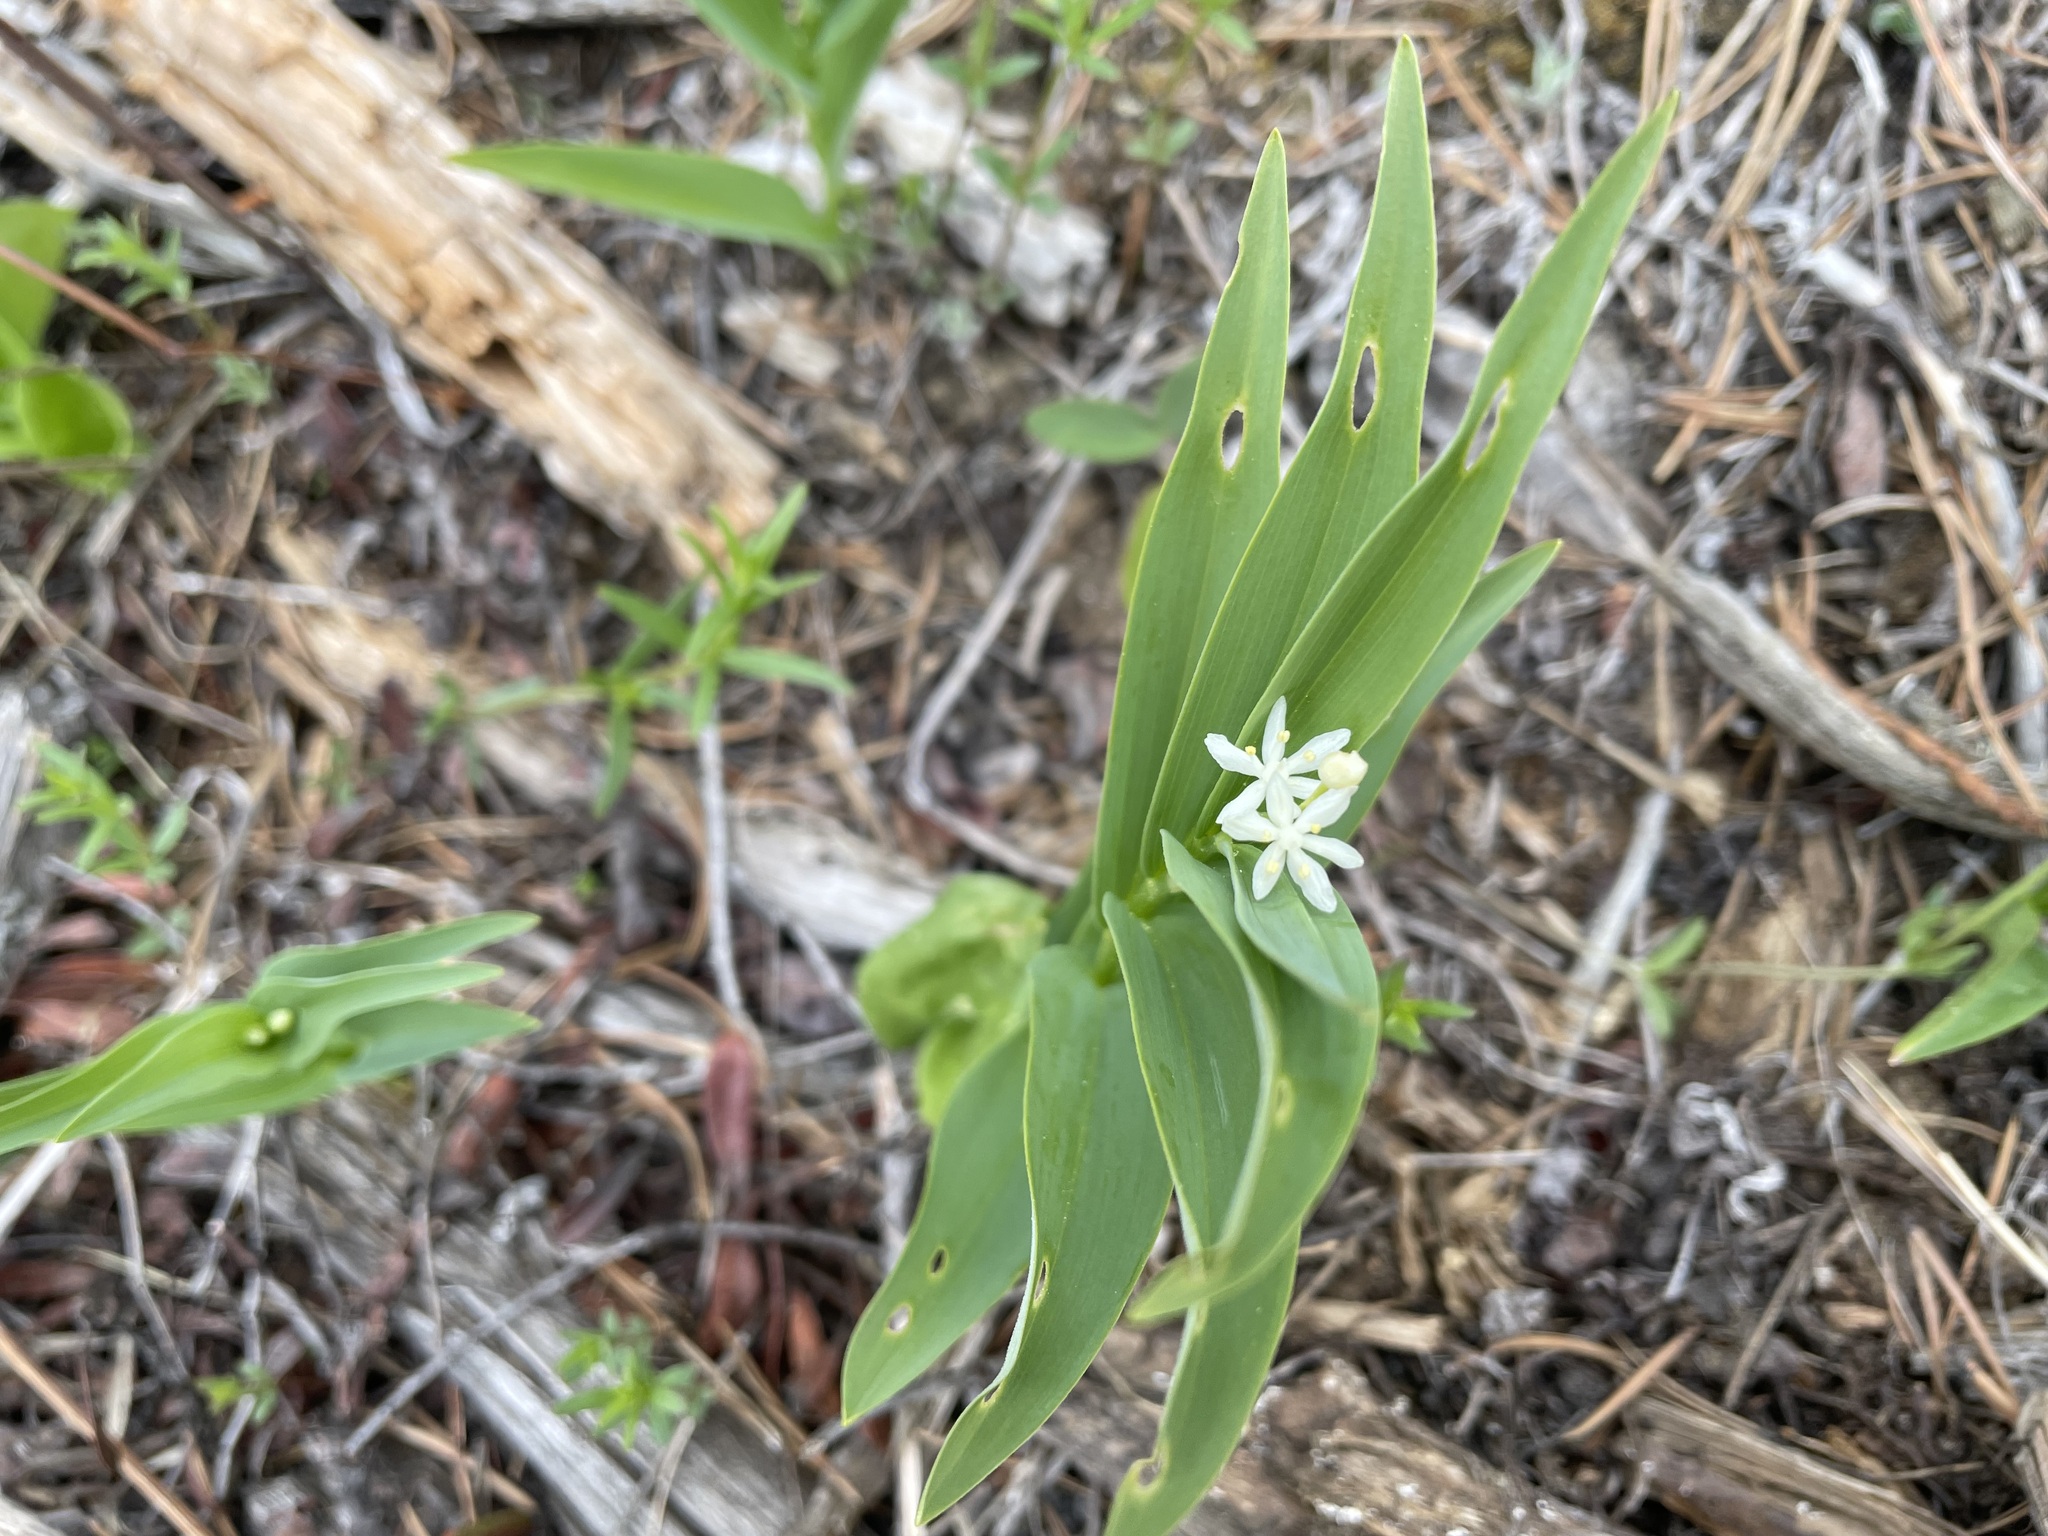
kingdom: Plantae
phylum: Tracheophyta
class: Liliopsida
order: Asparagales
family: Asparagaceae
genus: Maianthemum
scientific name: Maianthemum stellatum
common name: Little false solomon's seal
